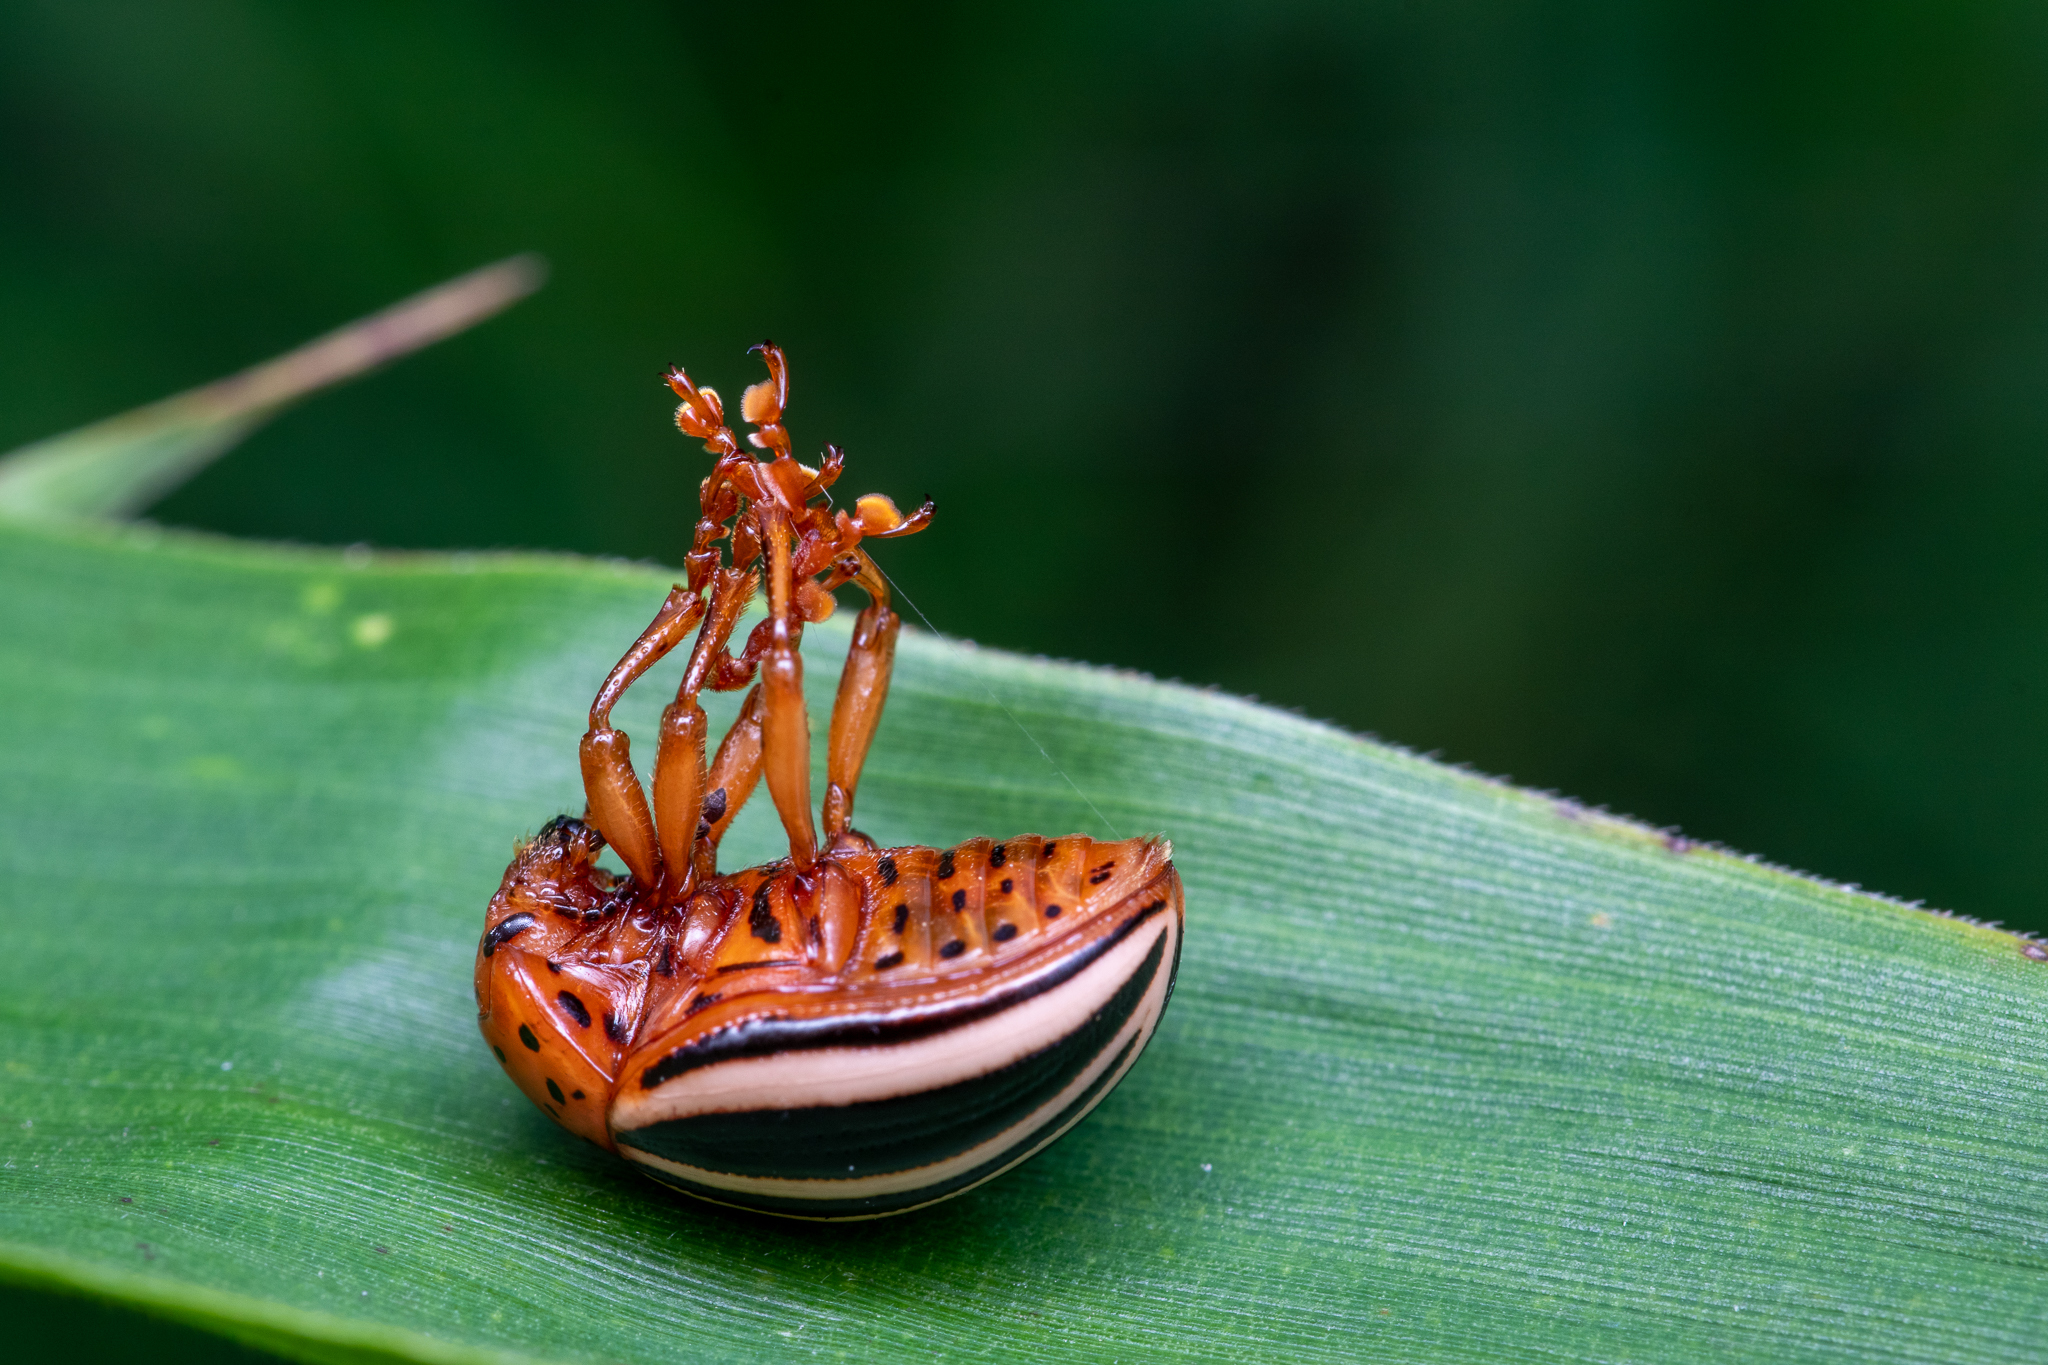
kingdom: Animalia
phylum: Arthropoda
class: Insecta
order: Coleoptera
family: Chrysomelidae
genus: Leptinotarsa
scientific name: Leptinotarsa juncta
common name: False potato beetle
